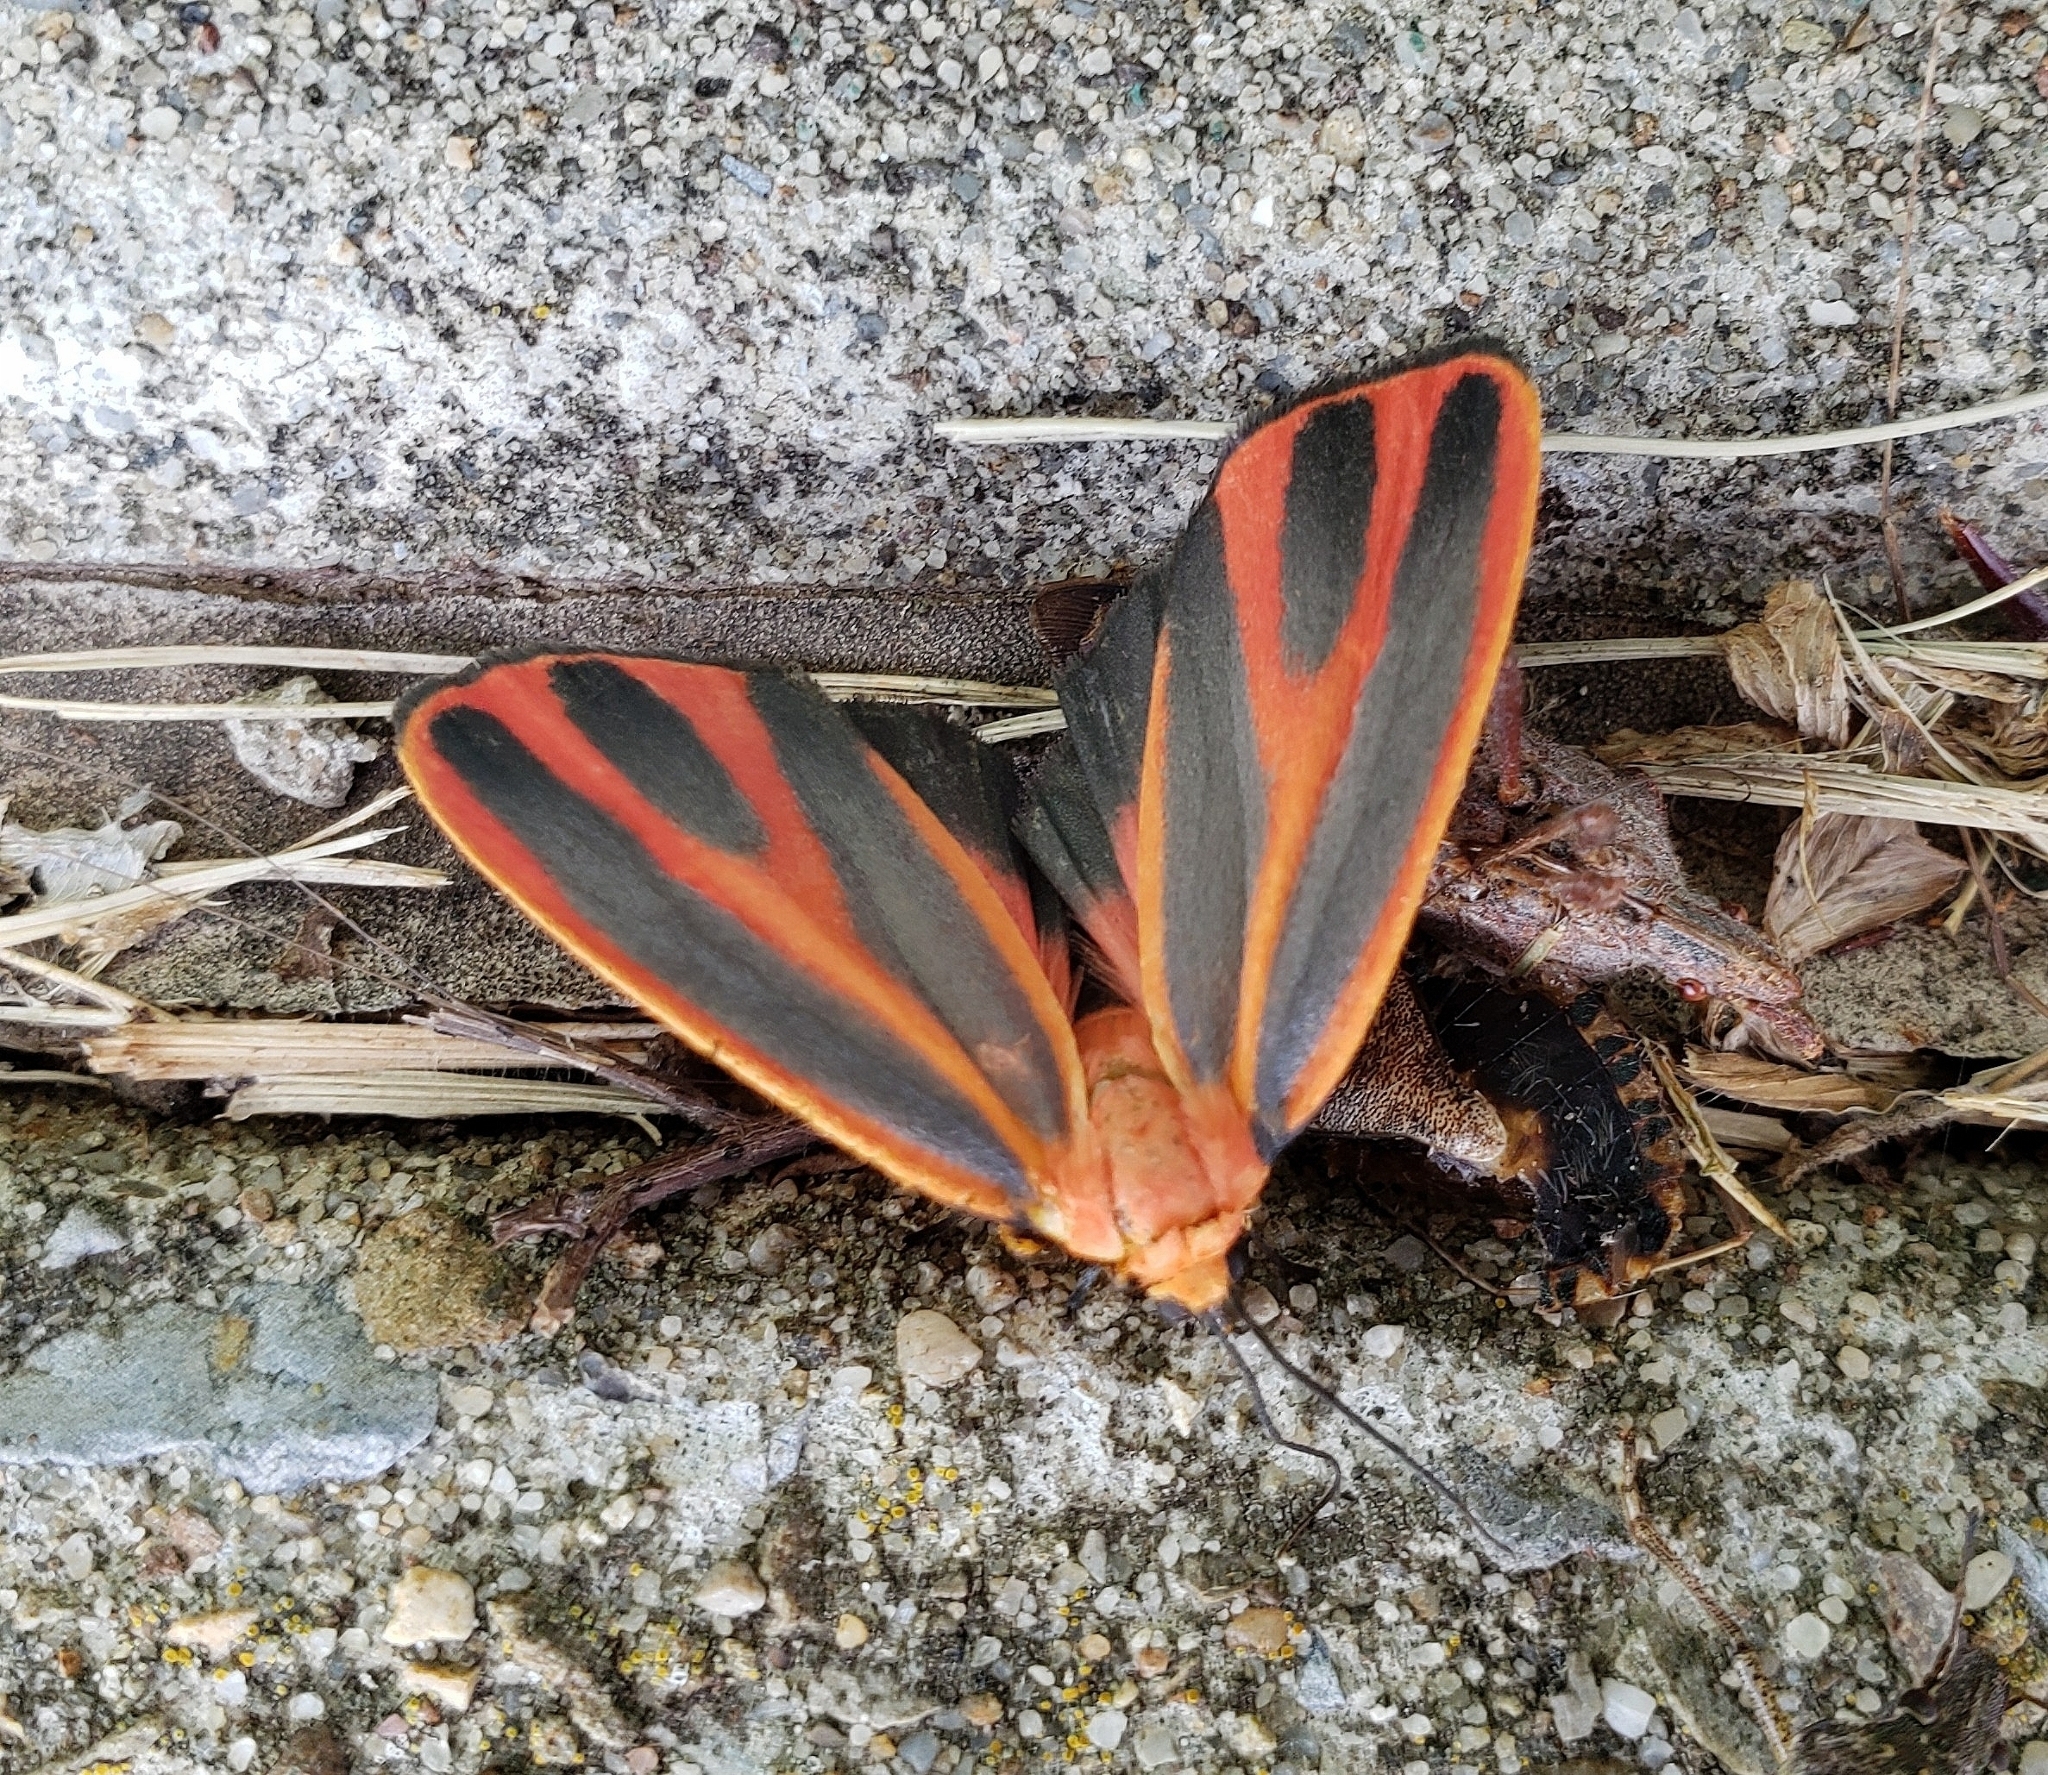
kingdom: Animalia
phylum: Arthropoda
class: Insecta
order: Lepidoptera
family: Erebidae
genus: Hypoprepia
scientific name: Hypoprepia miniata
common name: Scarlet-winged lichen moth
